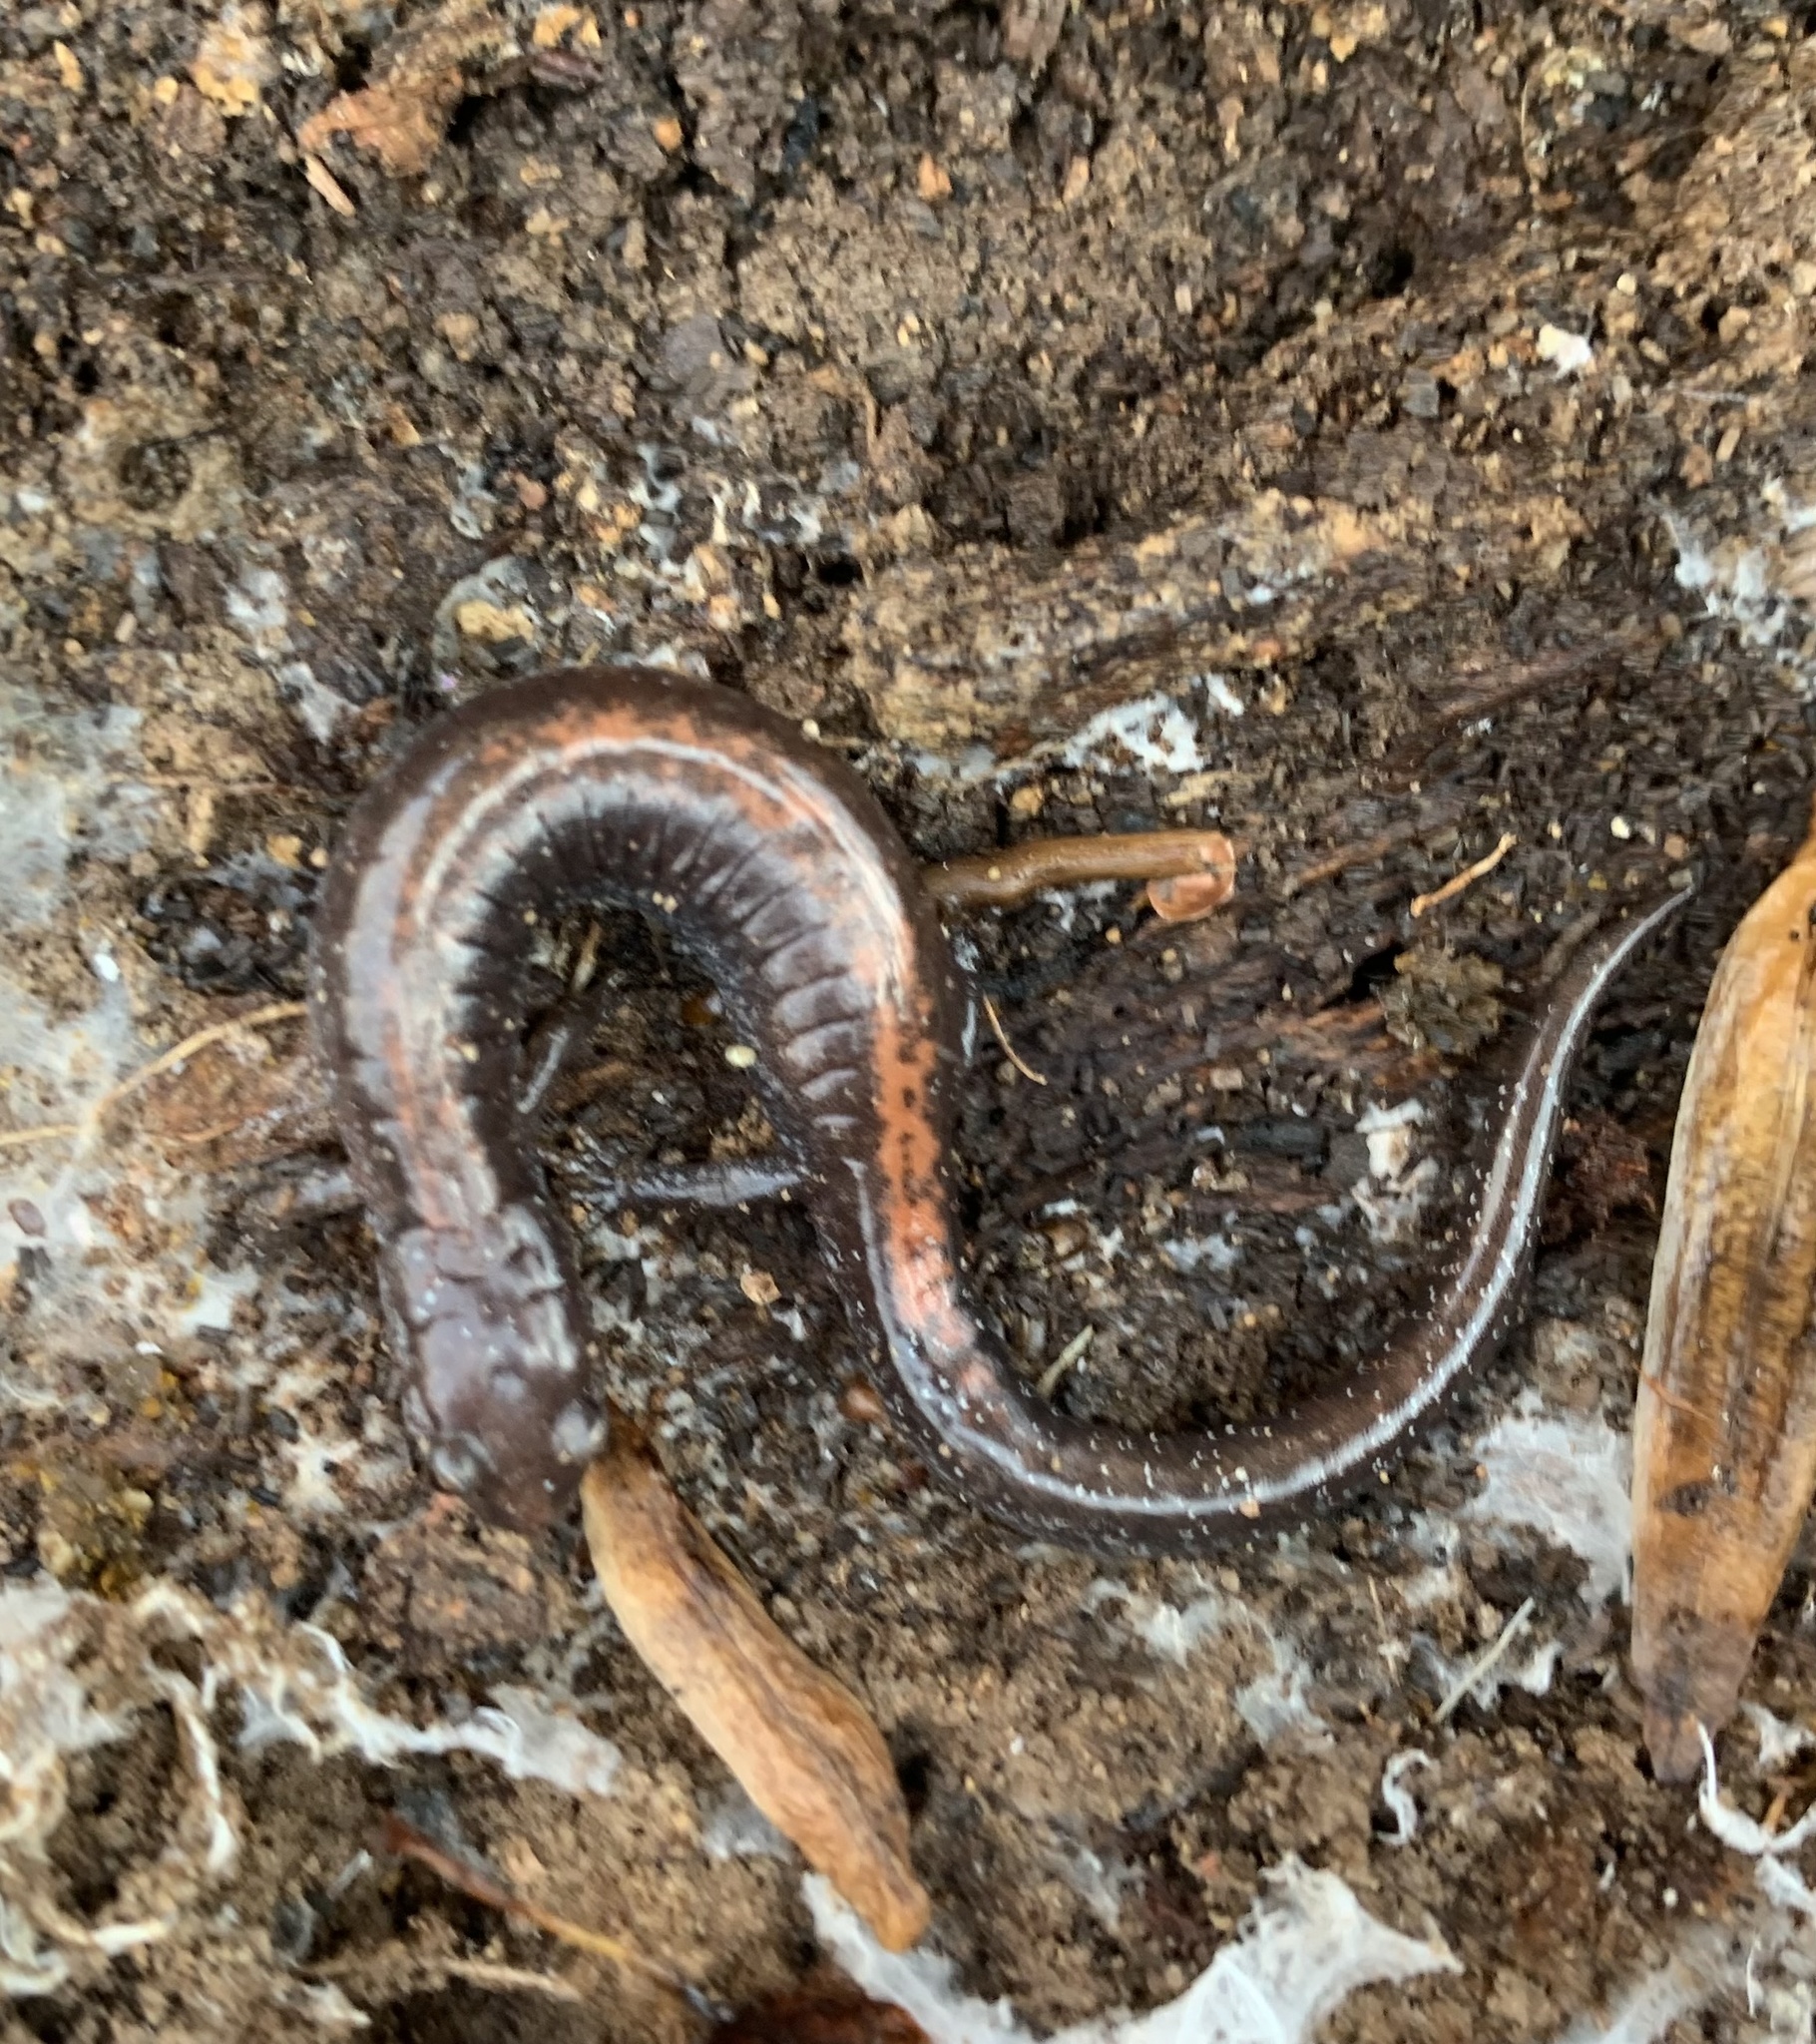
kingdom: Animalia
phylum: Chordata
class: Amphibia
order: Caudata
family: Plethodontidae
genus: Plethodon
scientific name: Plethodon cinereus
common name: Redback salamander
